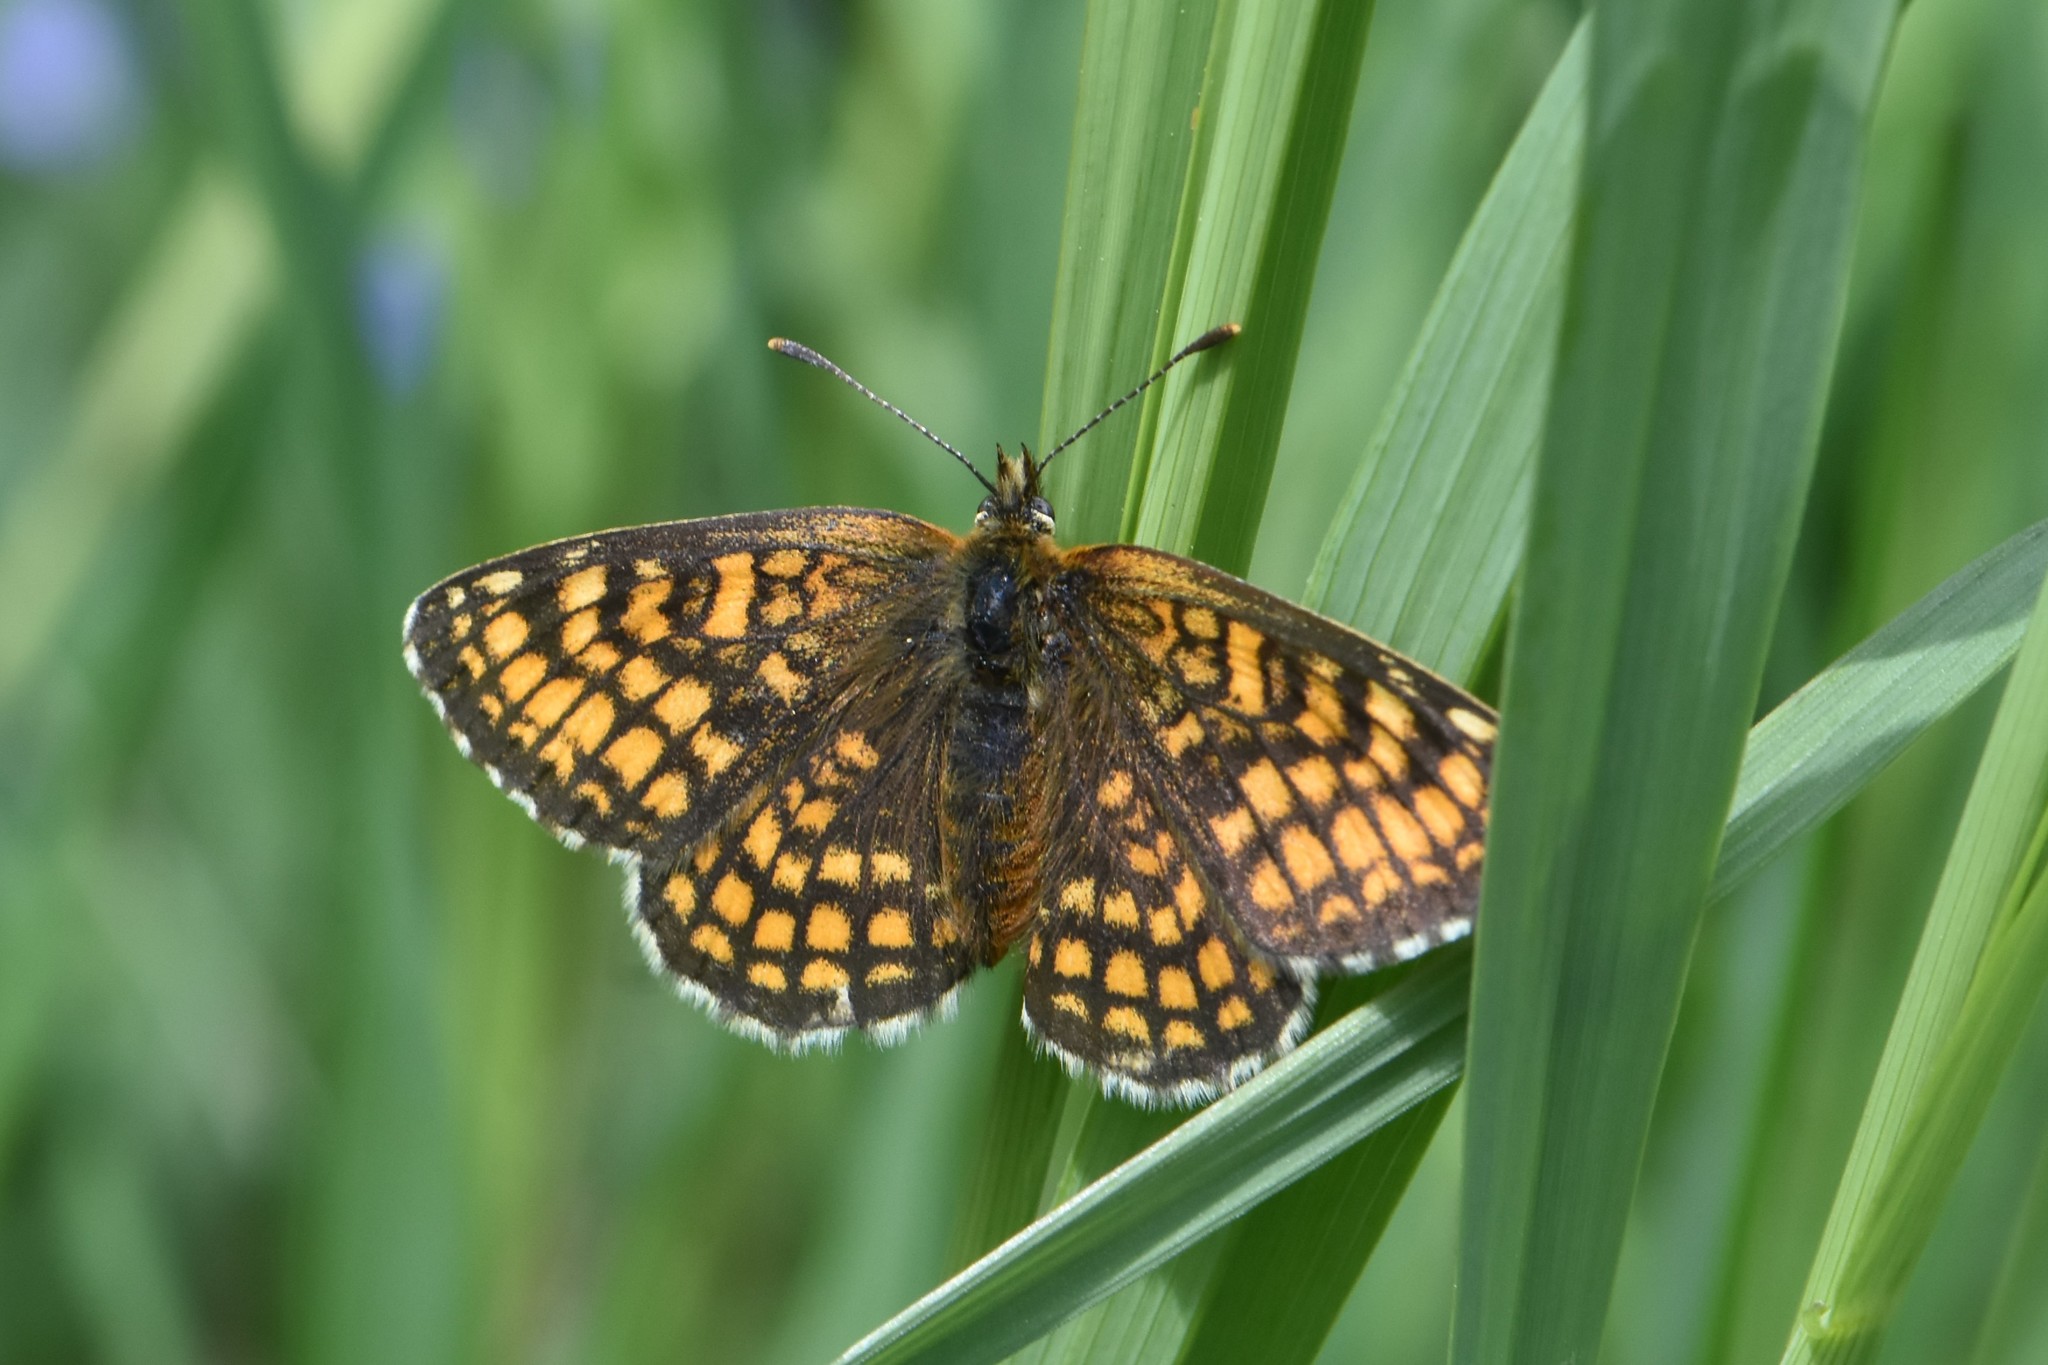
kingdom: Animalia
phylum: Arthropoda
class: Insecta
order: Lepidoptera
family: Nymphalidae
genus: Melitaea
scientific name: Melitaea athalia
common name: Heath fritillary
